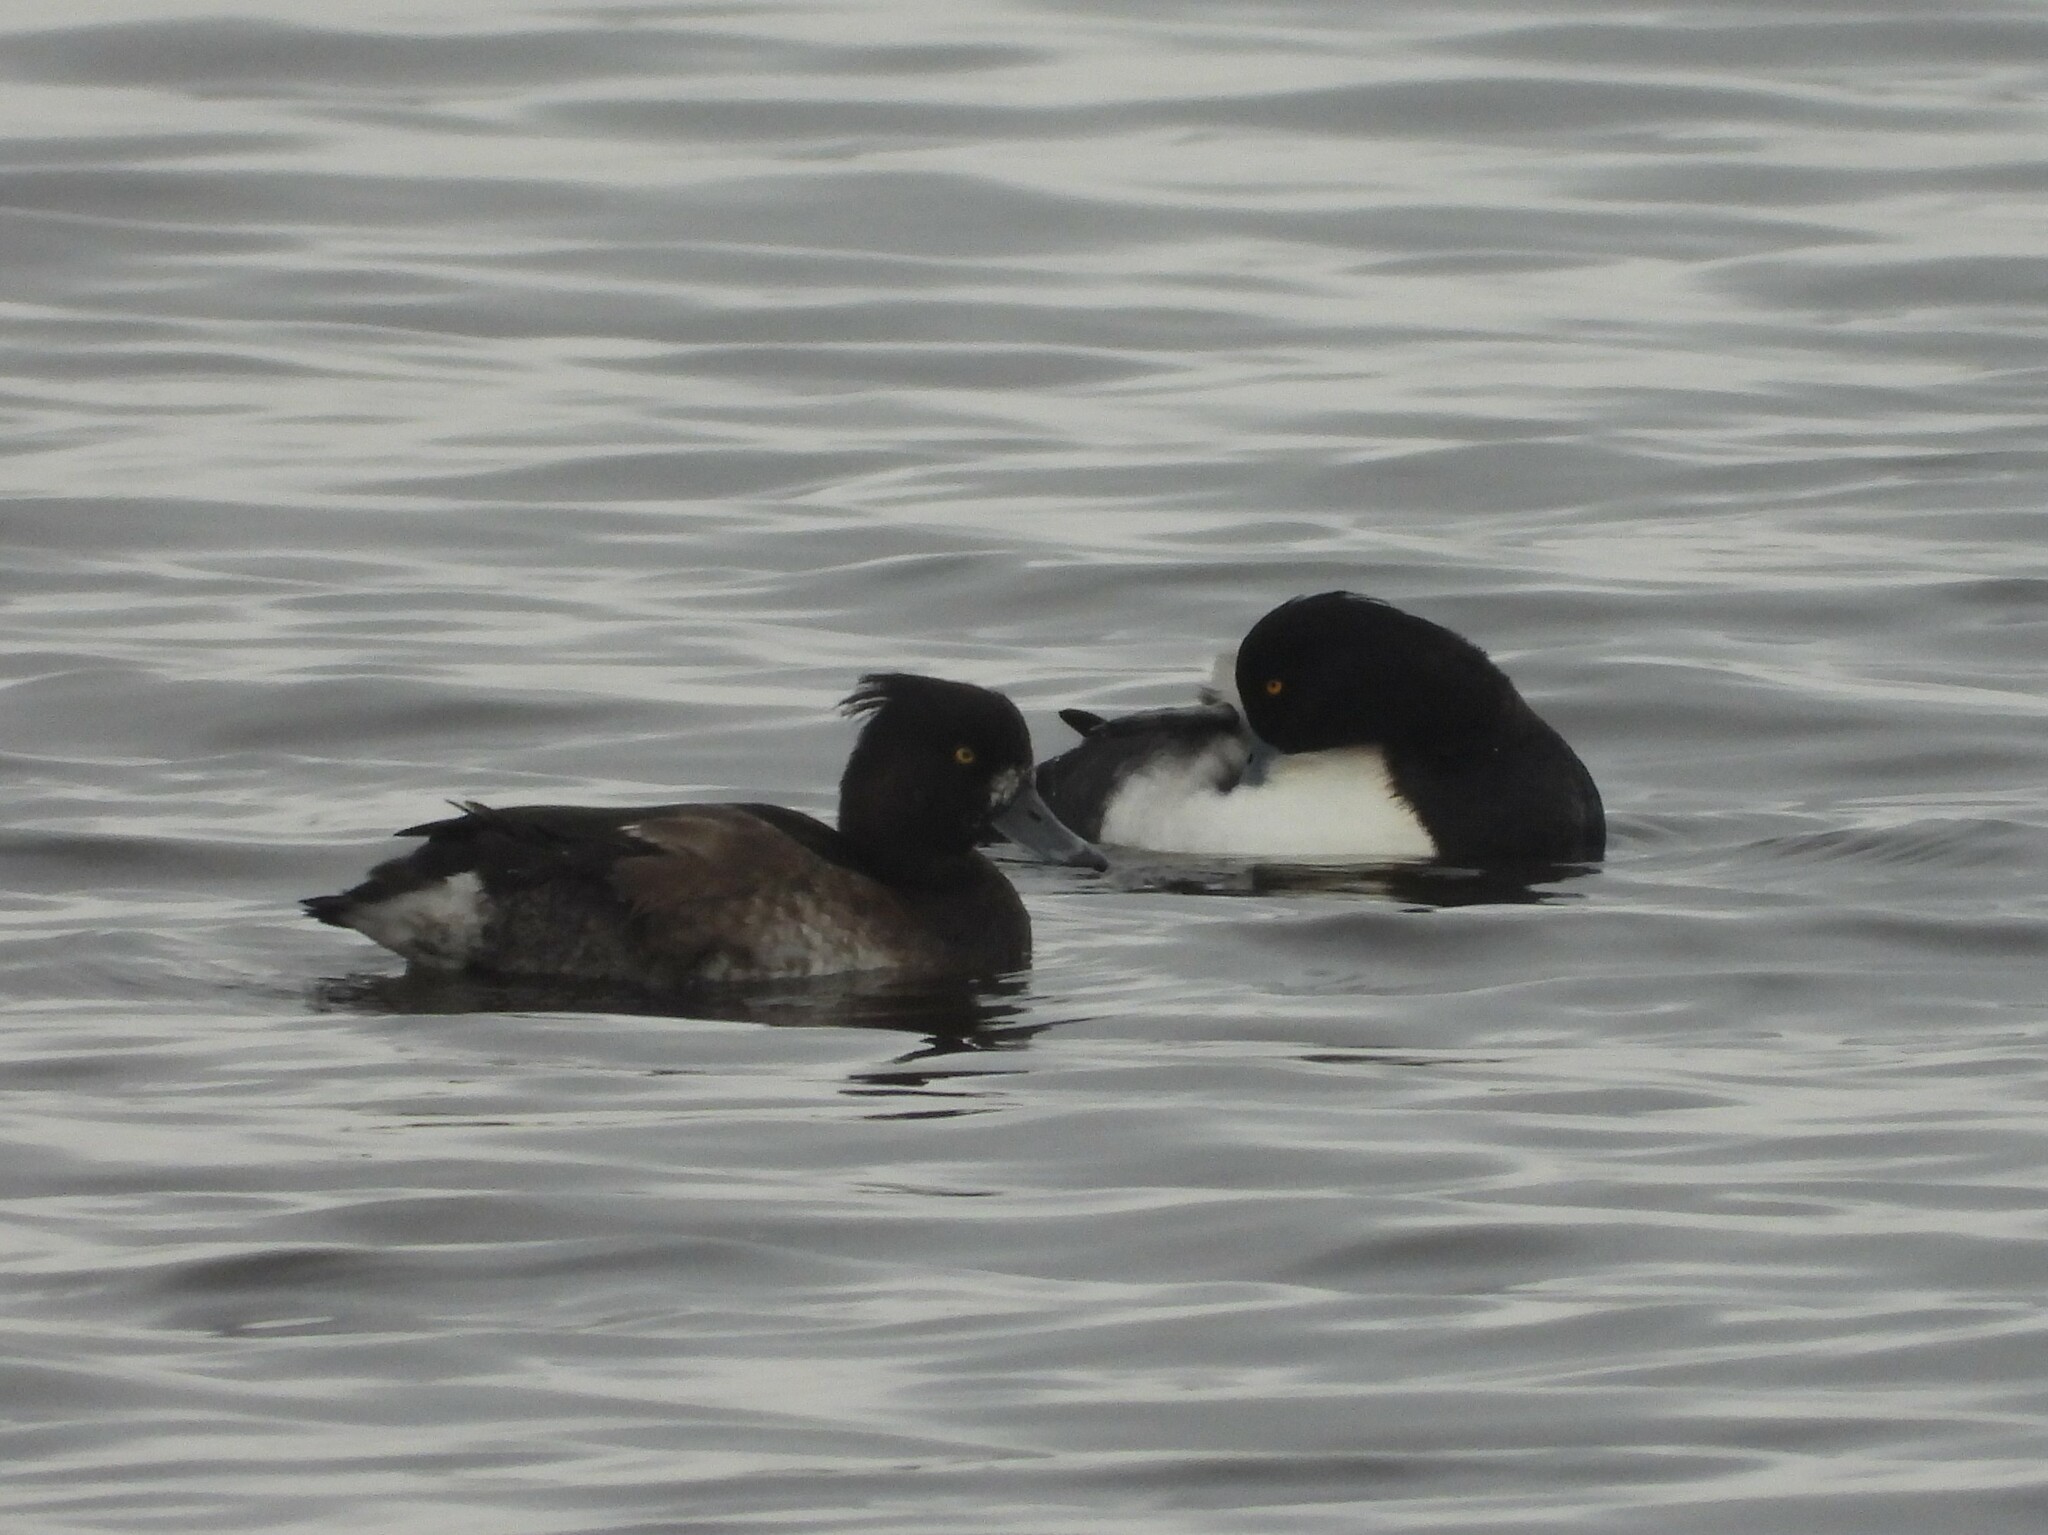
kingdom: Animalia
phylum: Chordata
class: Aves
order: Anseriformes
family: Anatidae
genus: Aythya
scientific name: Aythya fuligula
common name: Tufted duck
